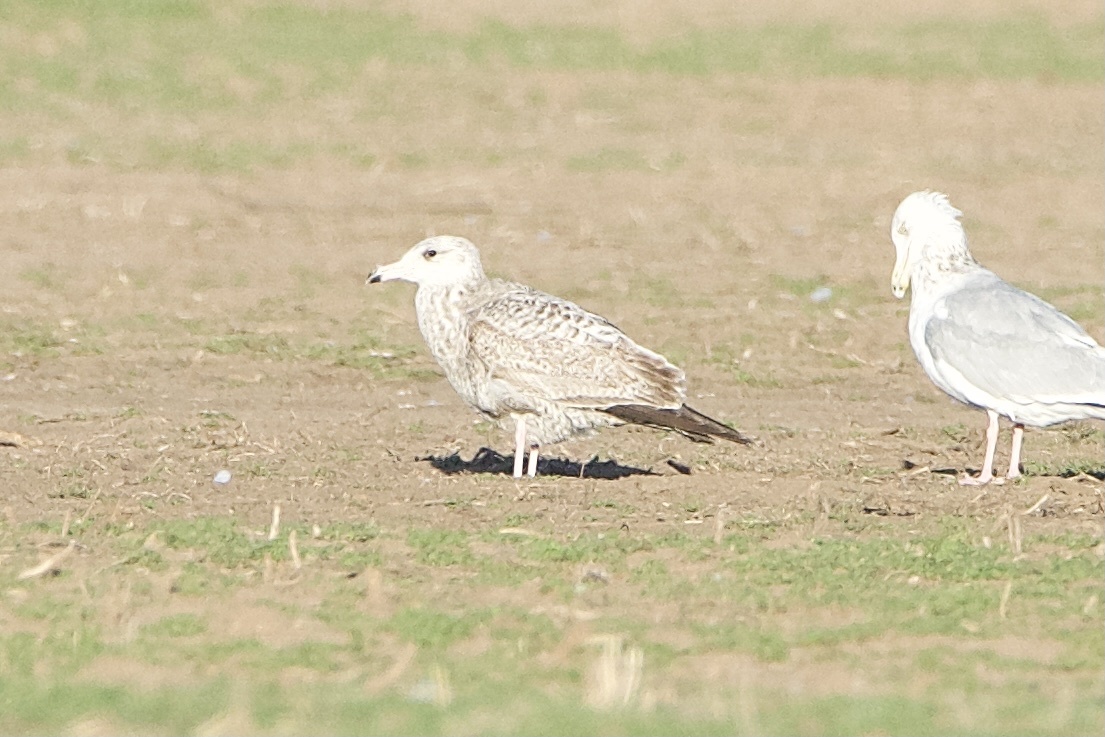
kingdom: Animalia
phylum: Chordata
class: Aves
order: Charadriiformes
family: Laridae
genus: Larus
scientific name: Larus argentatus
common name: Herring gull
